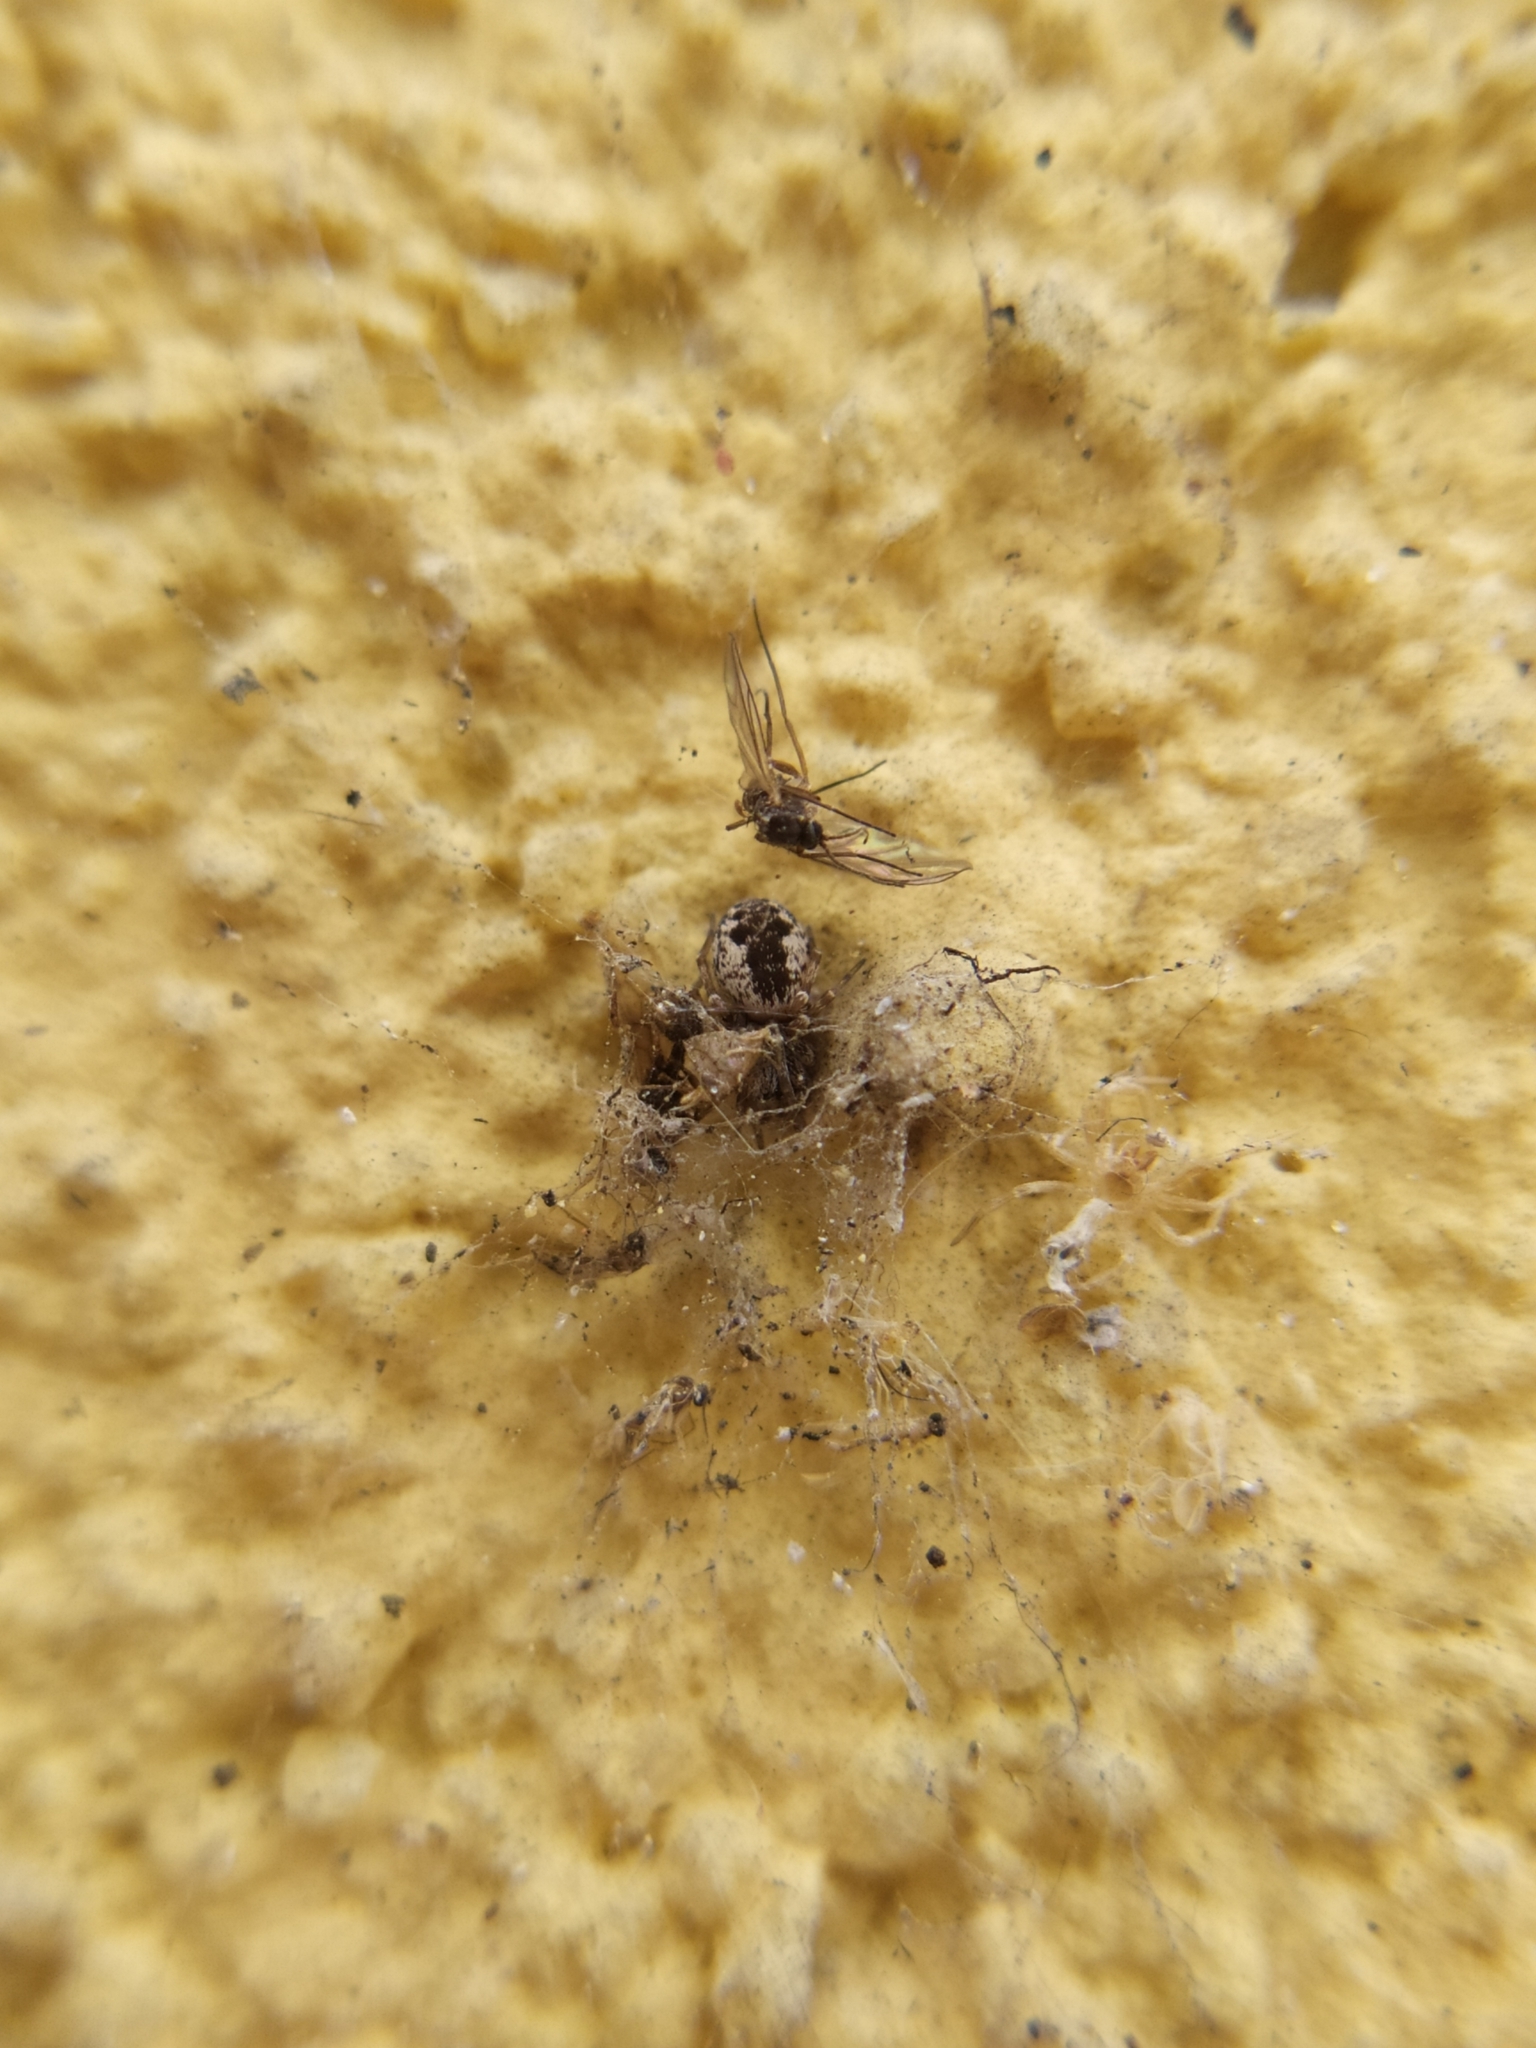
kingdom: Animalia
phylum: Arthropoda
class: Arachnida
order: Araneae
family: Dictynidae
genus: Brigittea
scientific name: Brigittea civica
